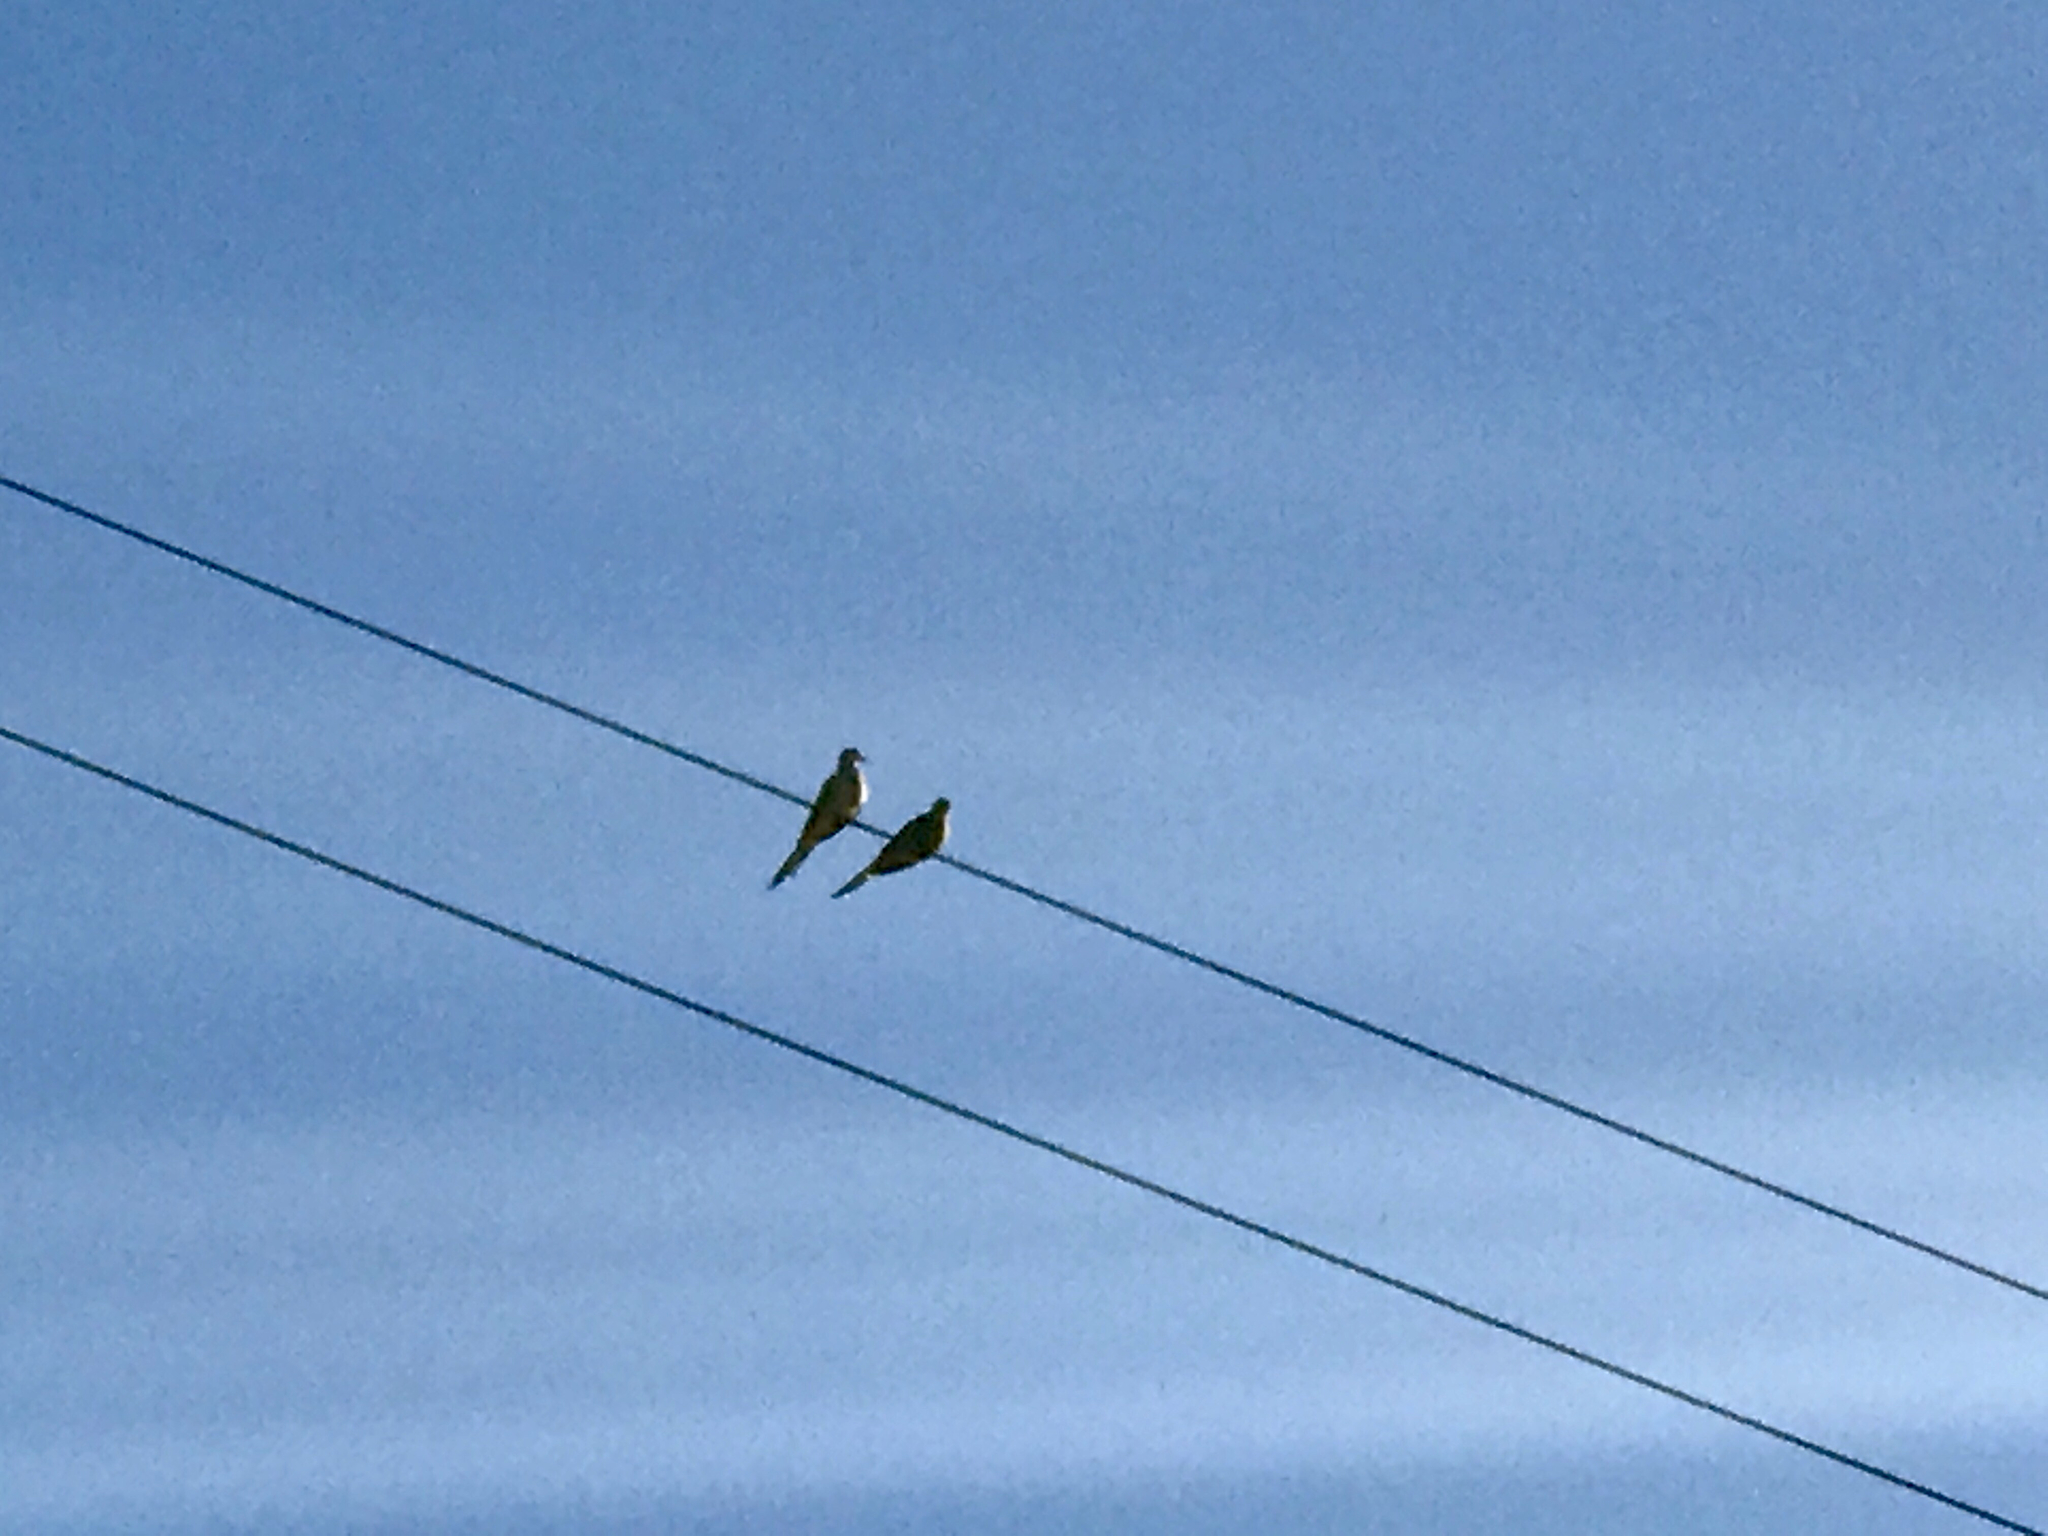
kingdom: Animalia
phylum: Chordata
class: Aves
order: Columbiformes
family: Columbidae
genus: Zenaida
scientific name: Zenaida macroura
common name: Mourning dove
